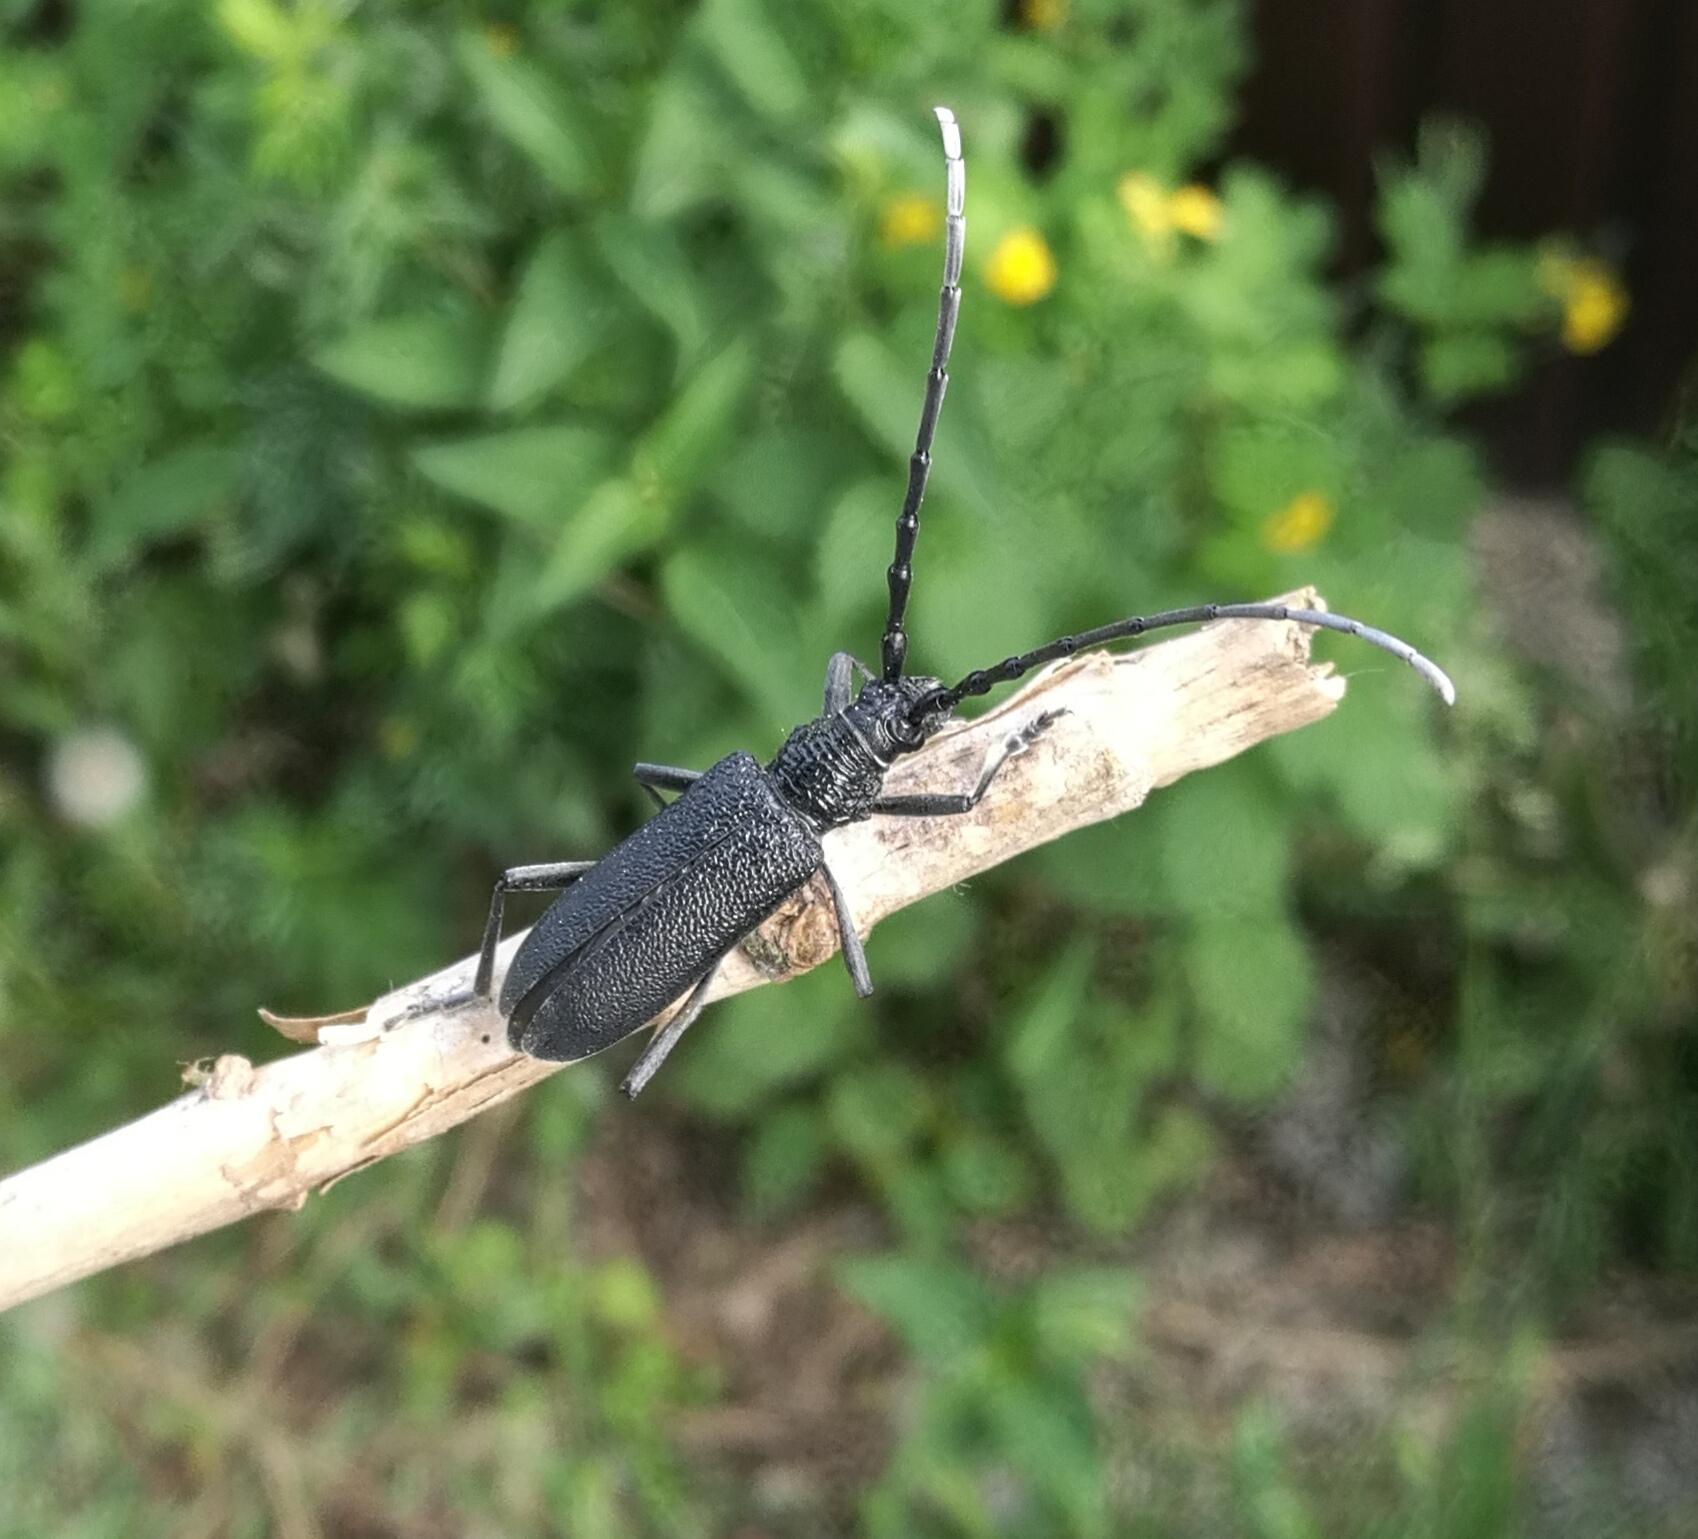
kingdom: Animalia
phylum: Arthropoda
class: Insecta
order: Coleoptera
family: Cerambycidae
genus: Cerambyx
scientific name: Cerambyx scopolii
